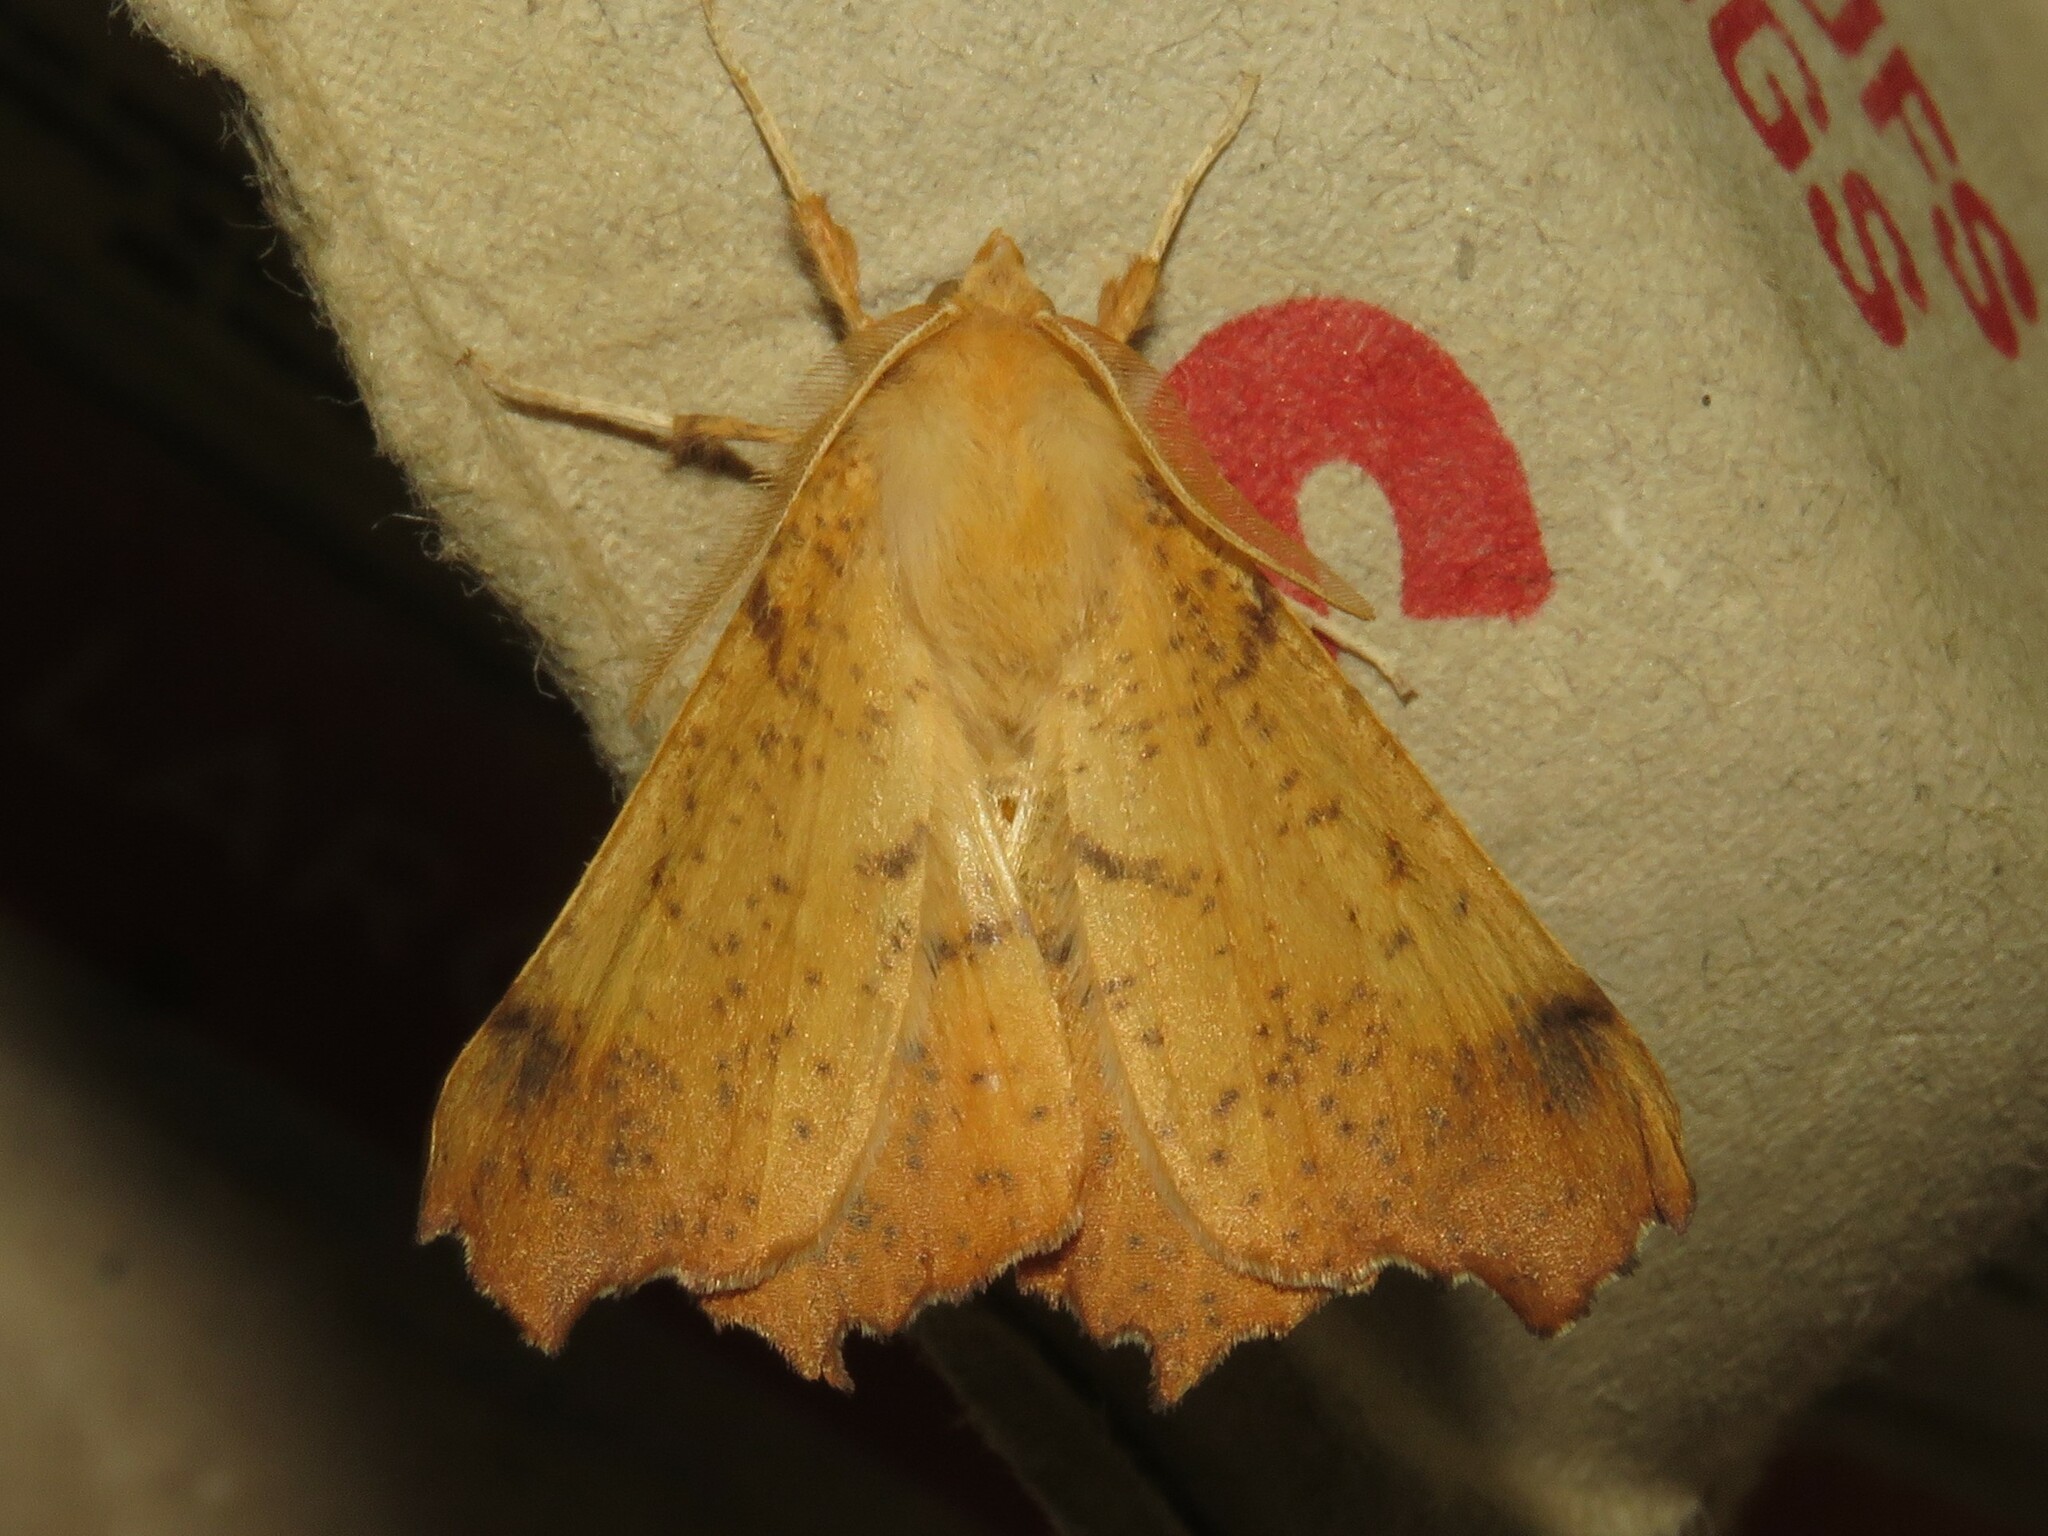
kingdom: Animalia
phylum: Arthropoda
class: Insecta
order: Lepidoptera
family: Geometridae
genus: Ennomos
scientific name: Ennomos magnaria
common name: Maple spanworm
